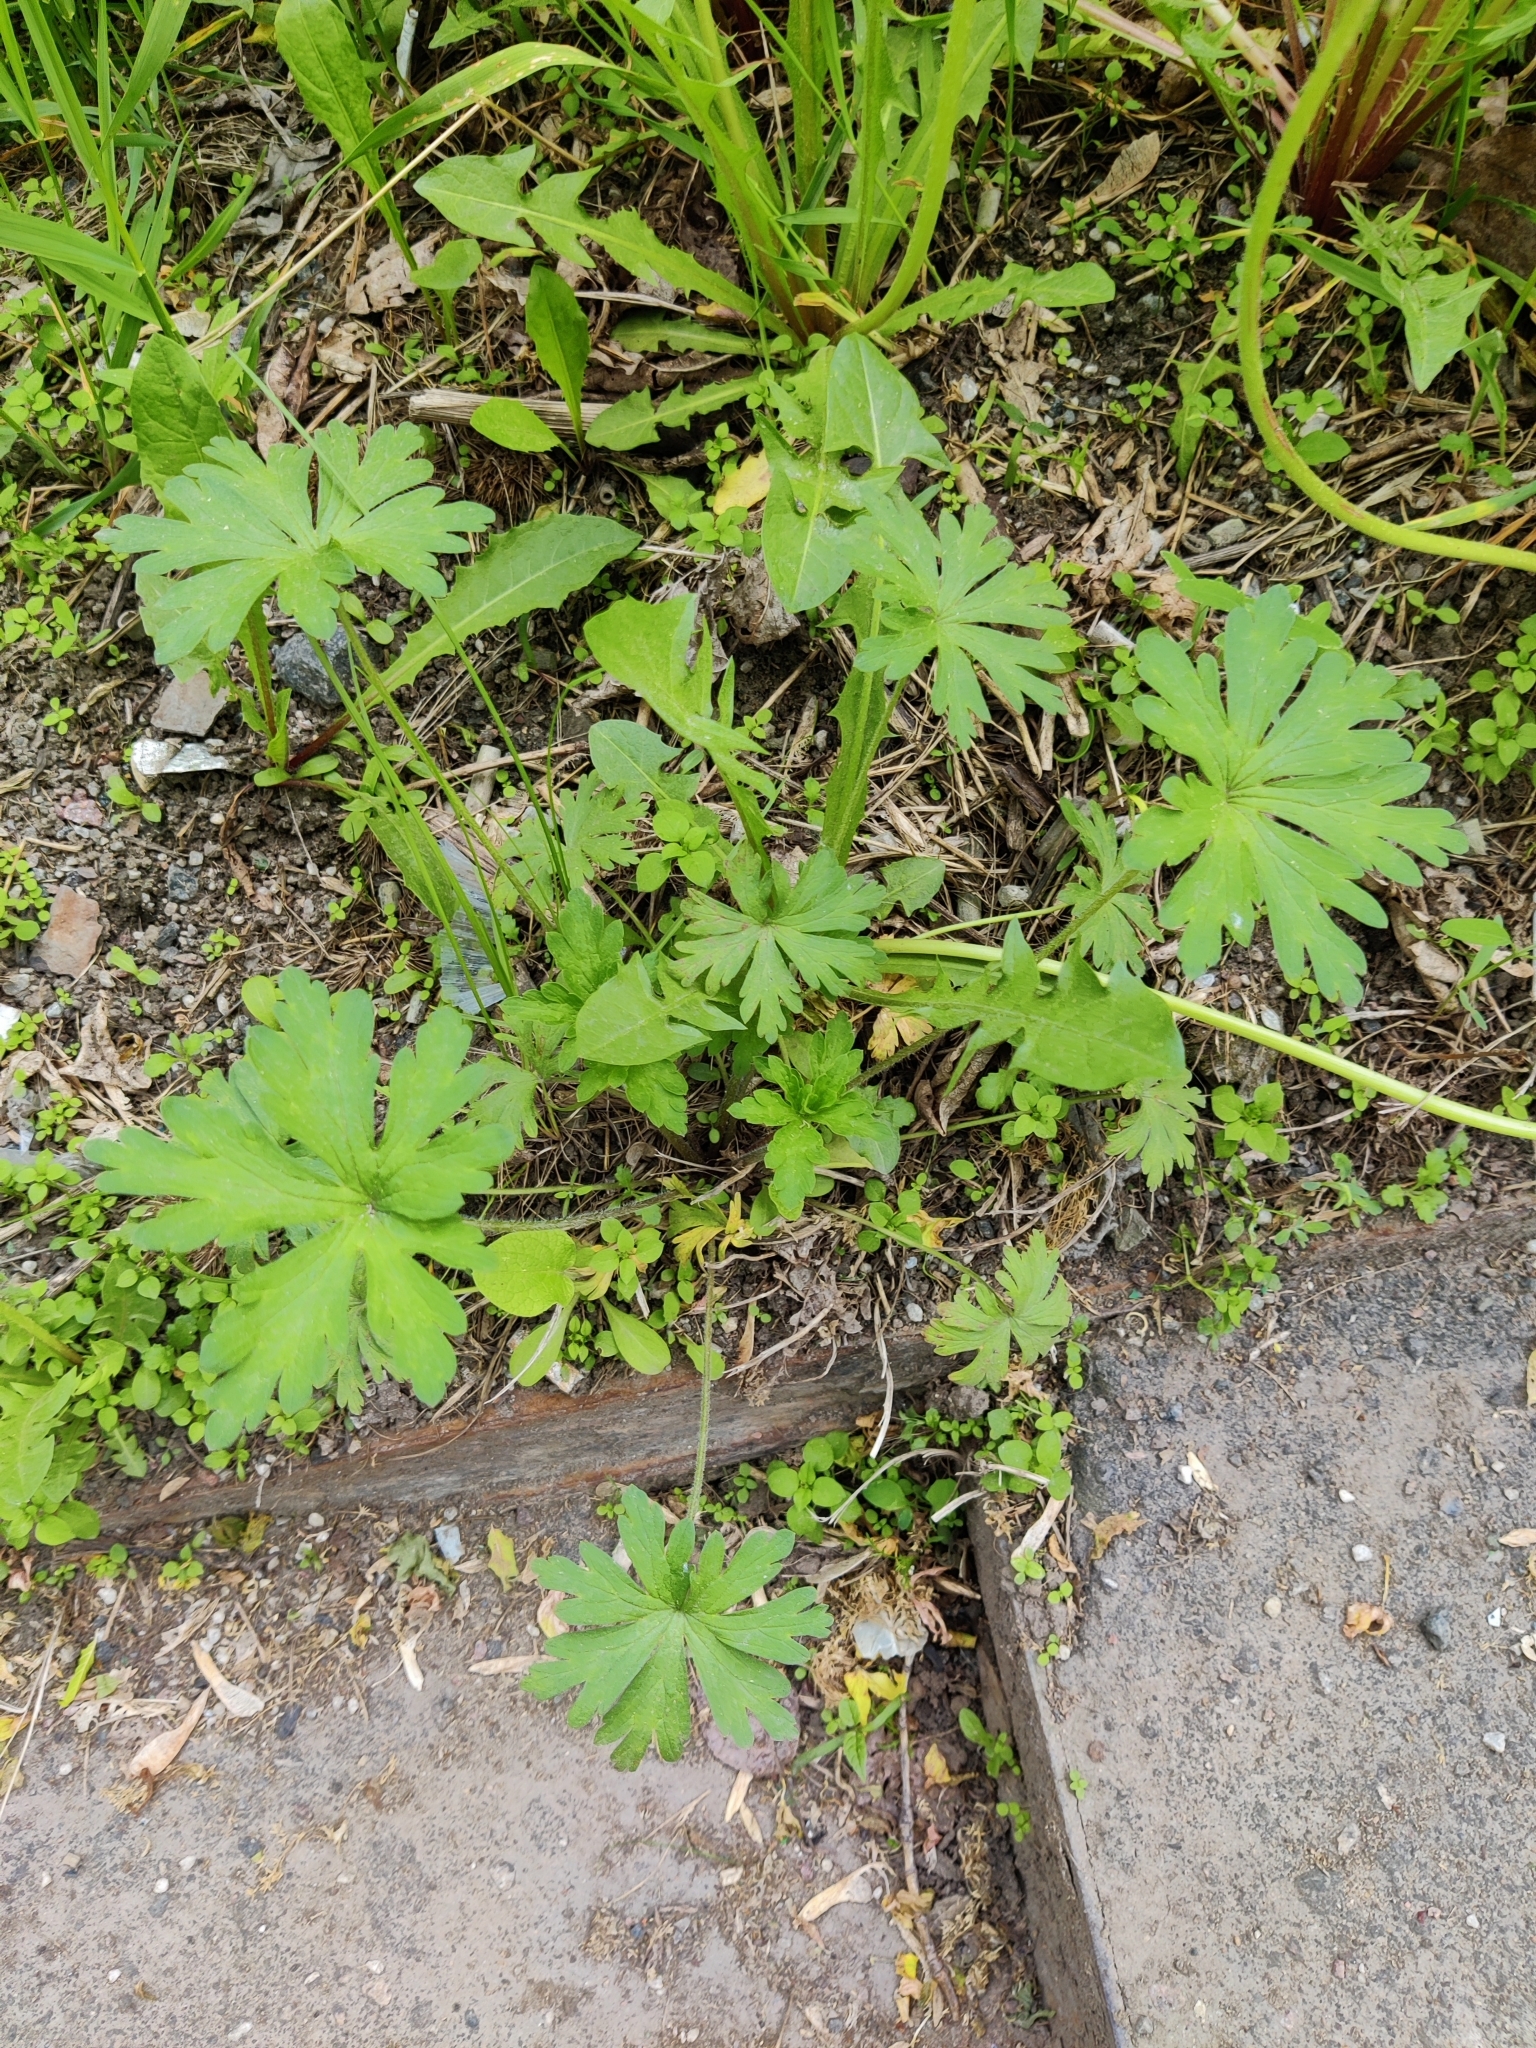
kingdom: Plantae
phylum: Tracheophyta
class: Magnoliopsida
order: Geraniales
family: Geraniaceae
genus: Geranium
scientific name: Geranium sibiricum
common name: Siberian crane's-bill
